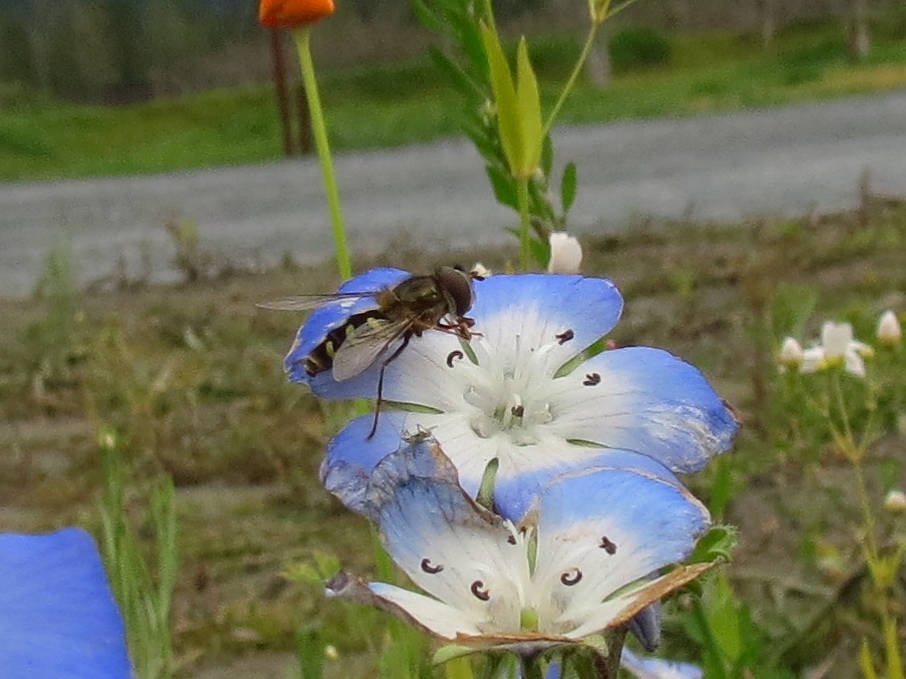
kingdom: Animalia
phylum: Arthropoda
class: Insecta
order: Diptera
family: Syrphidae
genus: Lapposyrphus
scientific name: Lapposyrphus lapponicus
